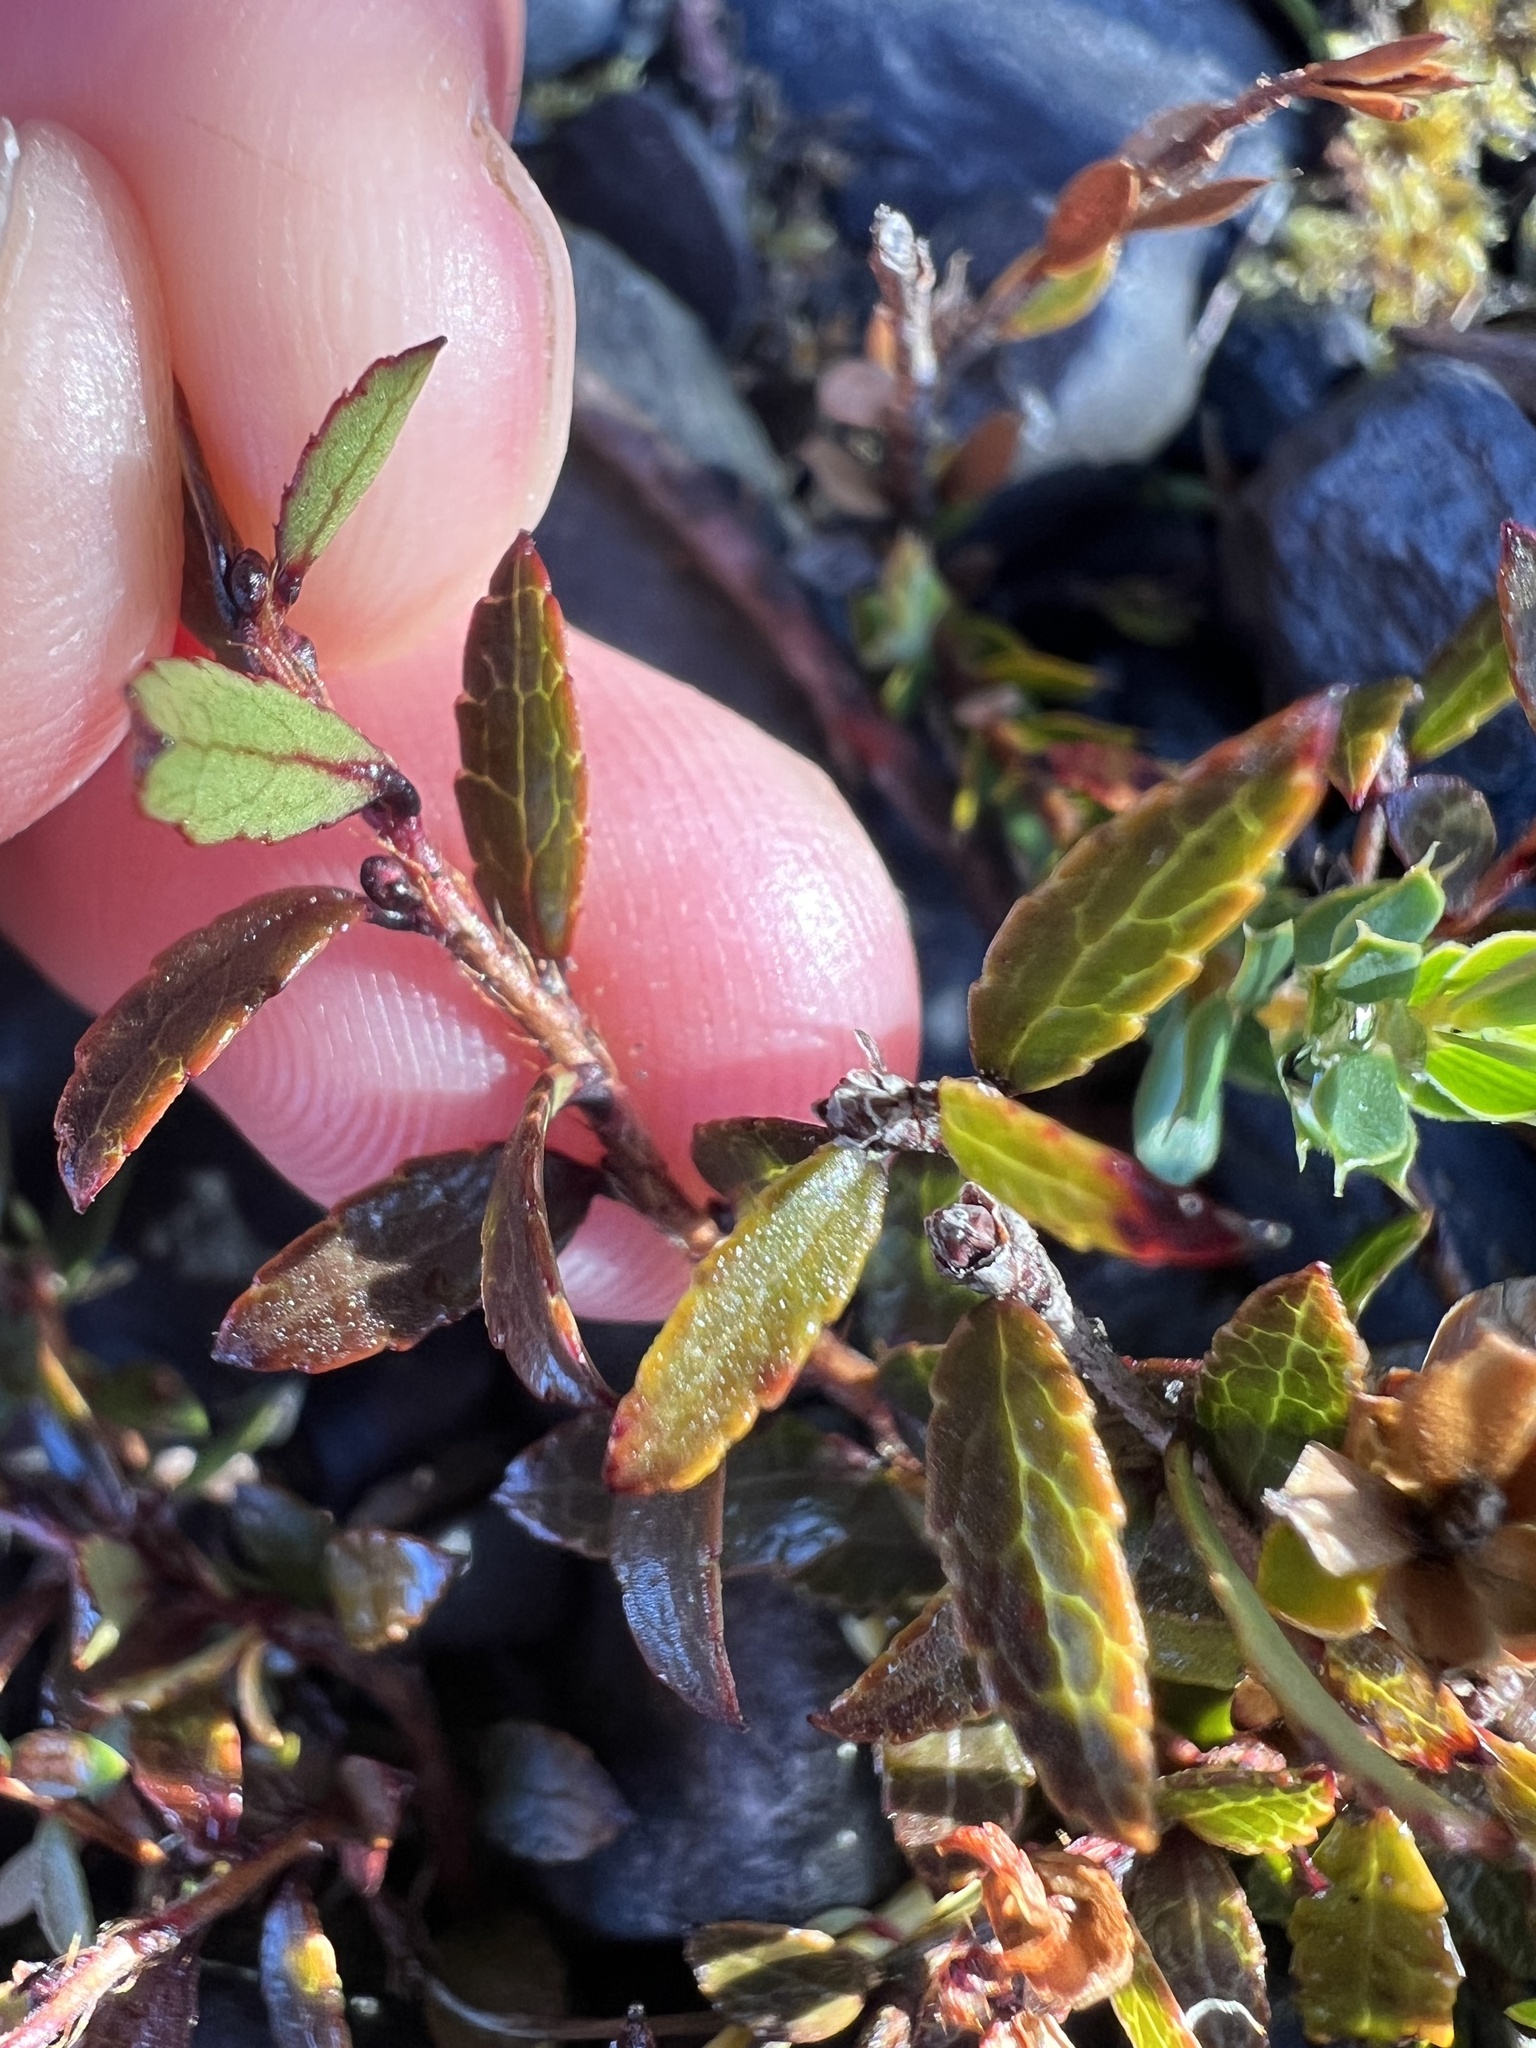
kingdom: Plantae
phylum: Tracheophyta
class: Magnoliopsida
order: Ericales
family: Ericaceae
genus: Gaultheria
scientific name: Gaultheria macrostigma
